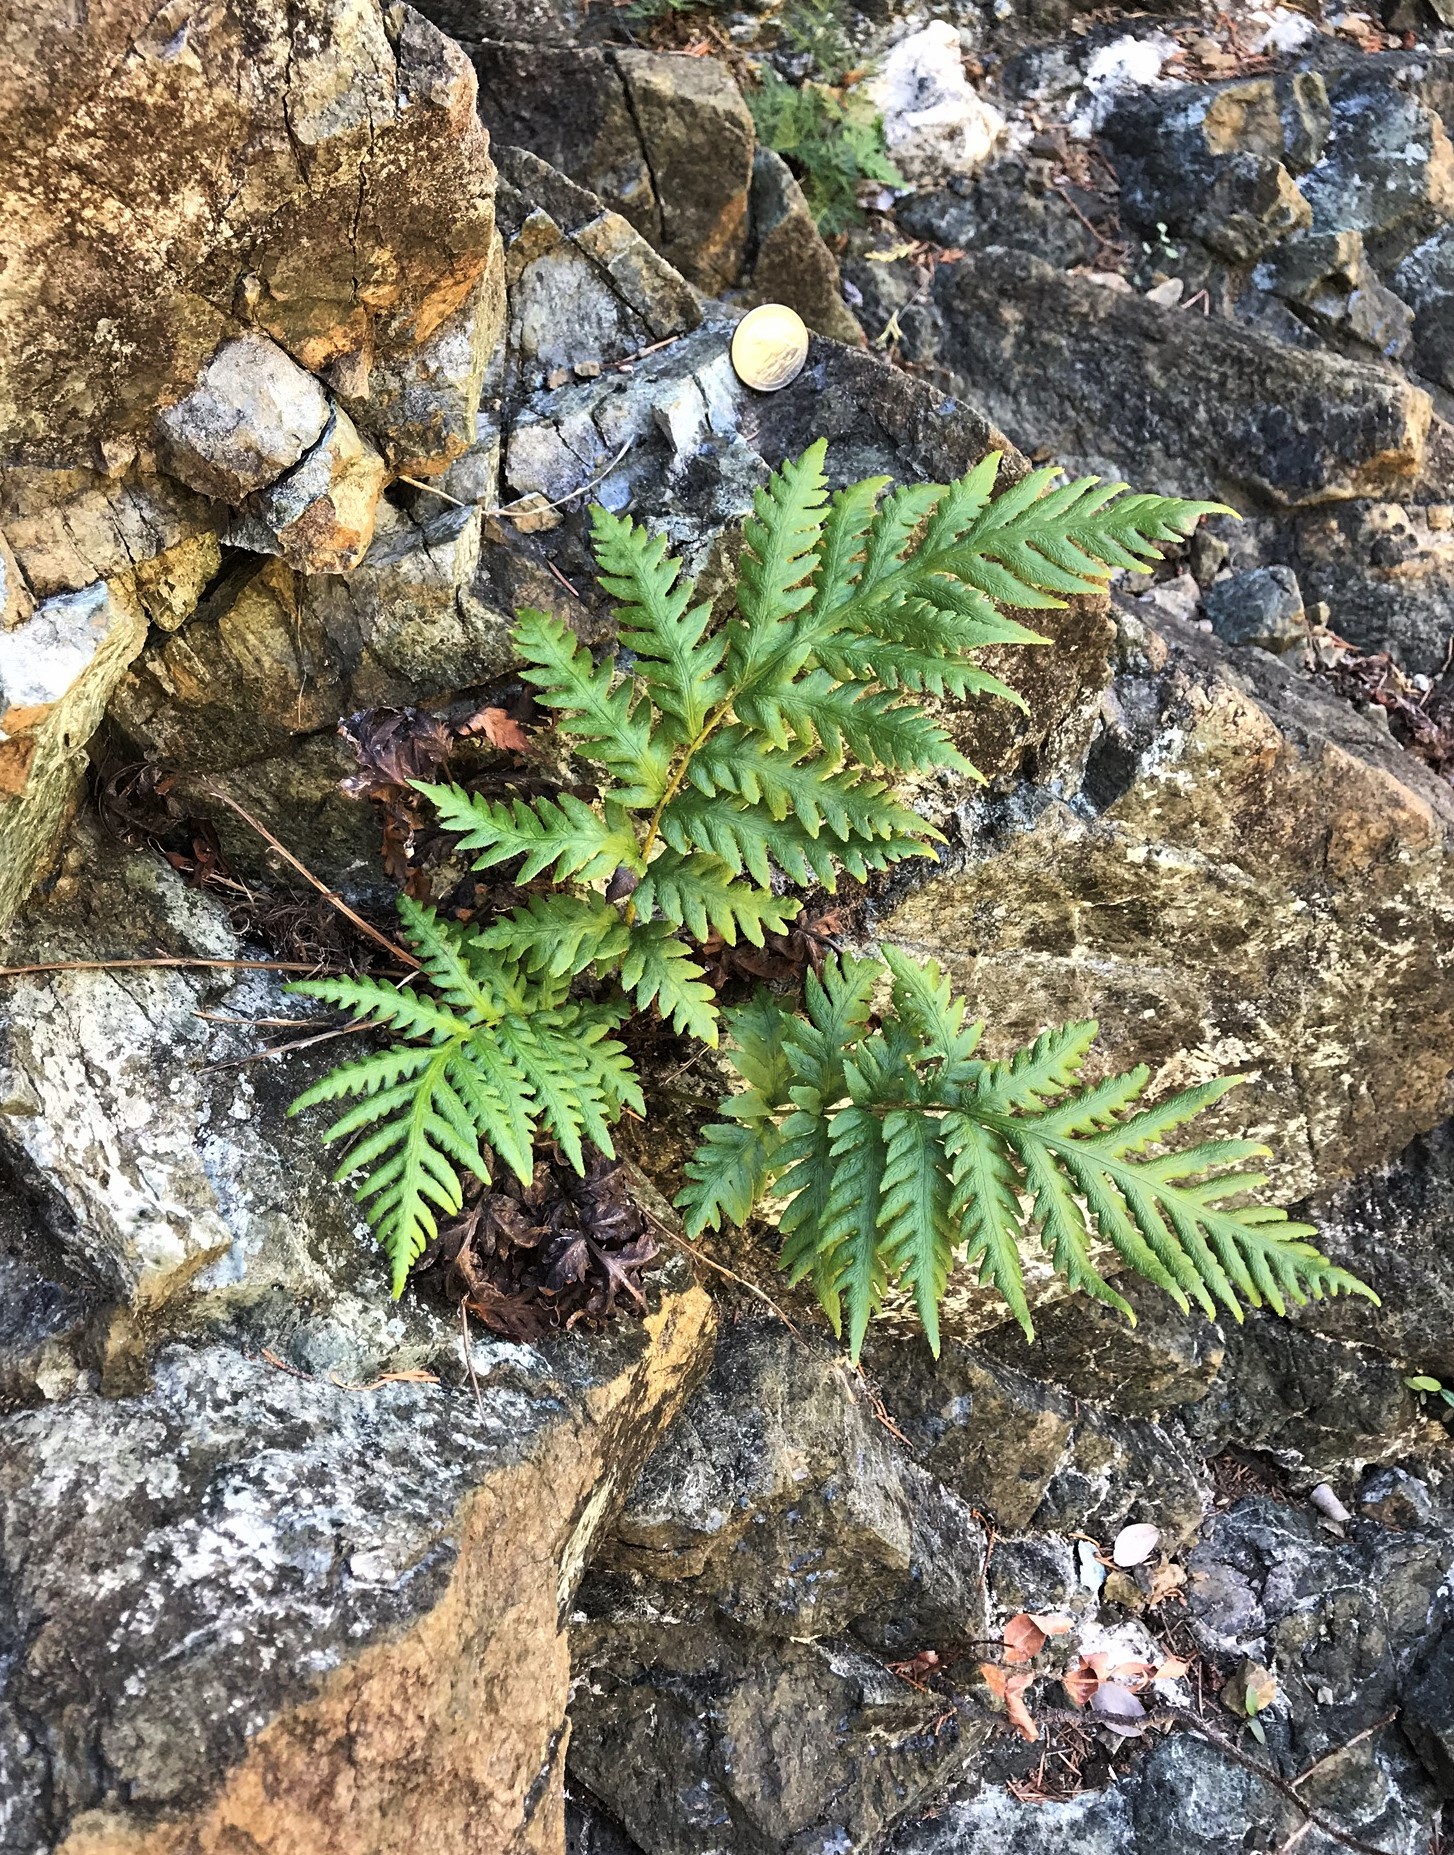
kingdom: Plantae
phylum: Tracheophyta
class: Polypodiopsida
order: Polypodiales
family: Blechnaceae
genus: Woodwardia
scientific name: Woodwardia fimbriata
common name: Giant chain fern
